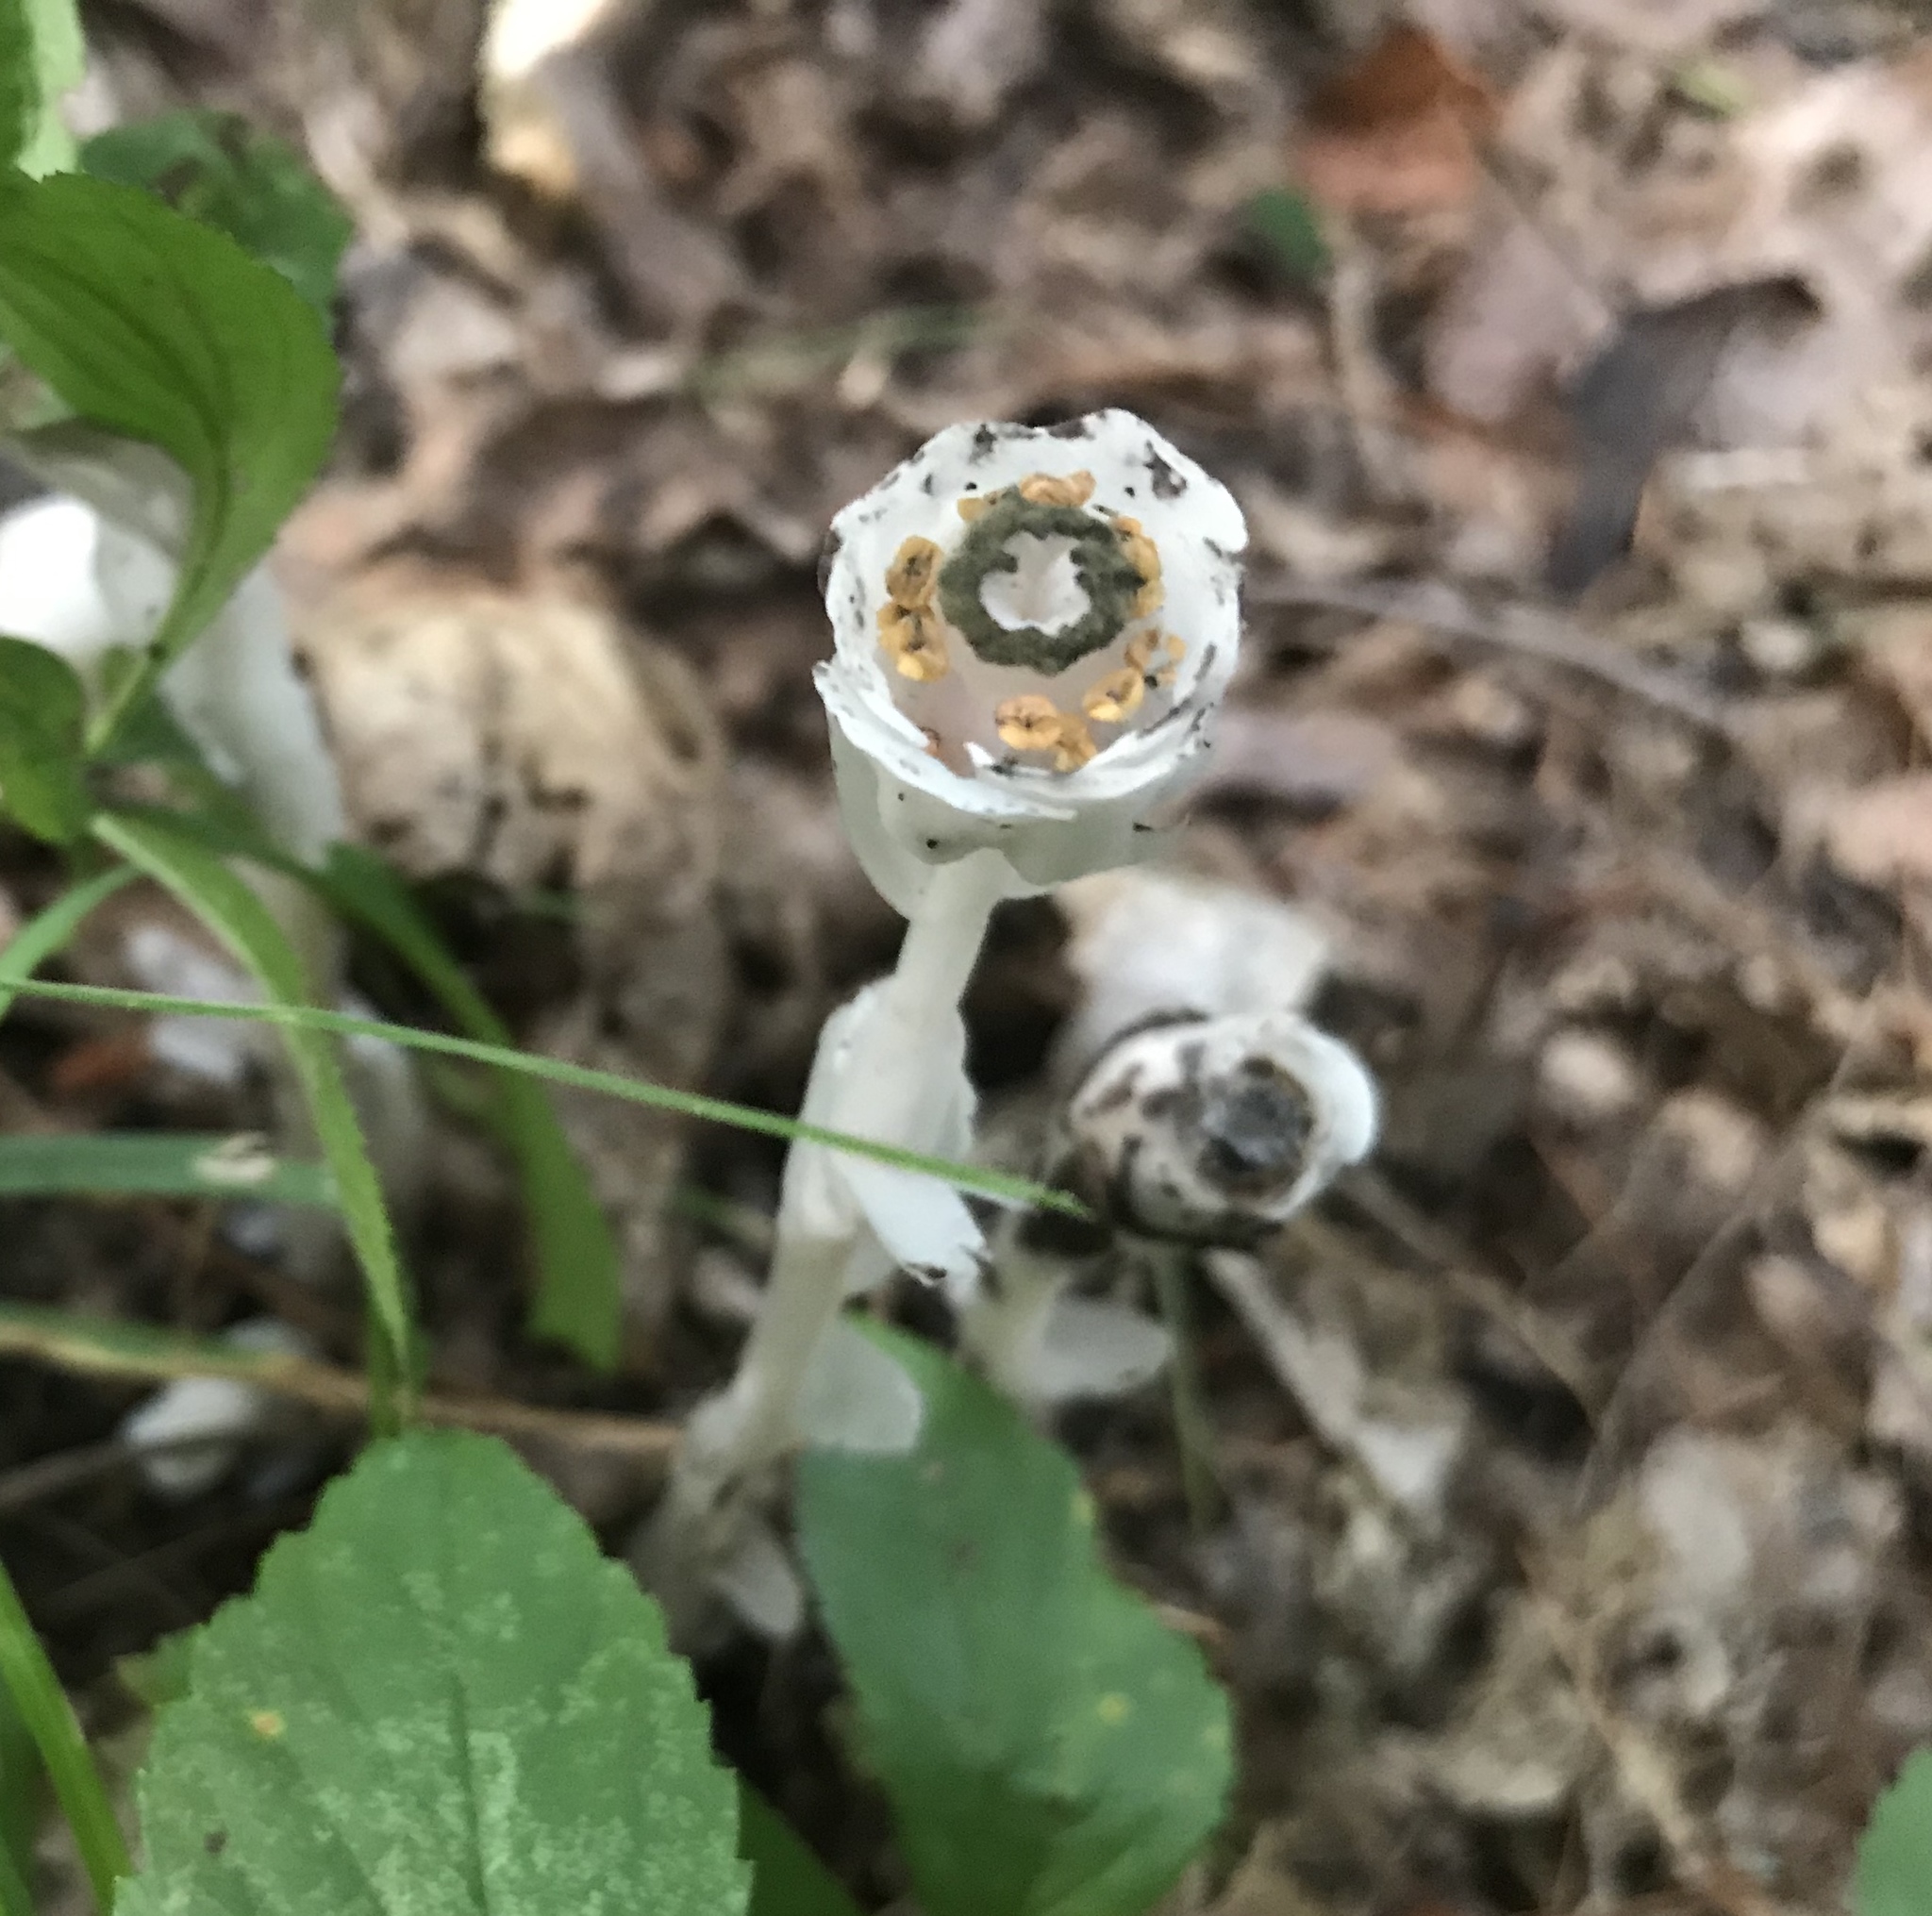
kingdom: Plantae
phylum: Tracheophyta
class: Magnoliopsida
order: Ericales
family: Ericaceae
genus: Monotropa
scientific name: Monotropa uniflora
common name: Convulsion root
